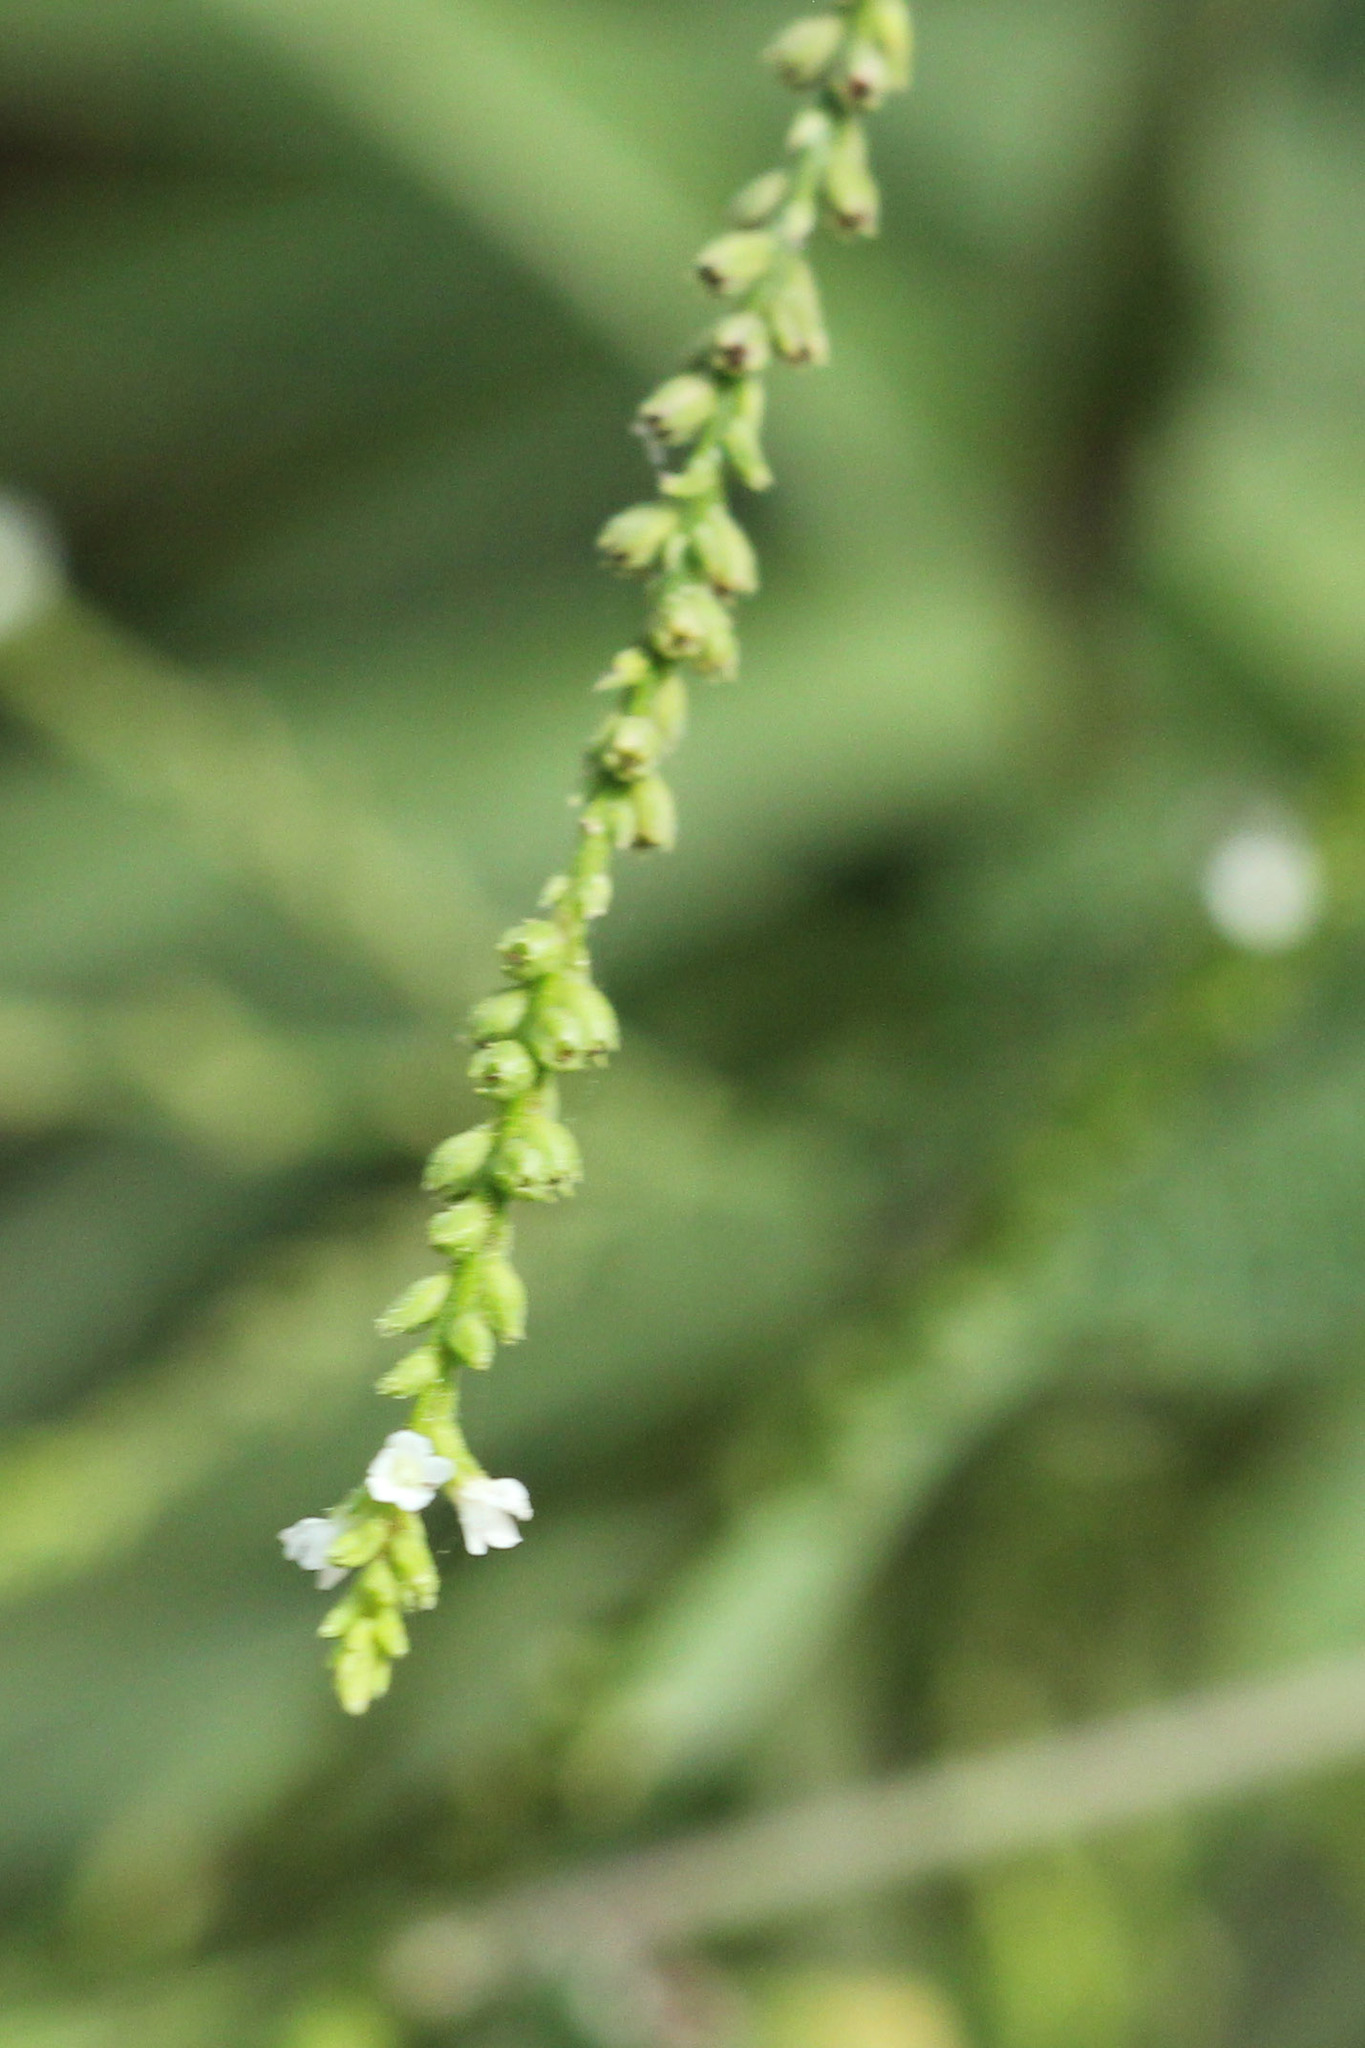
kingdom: Plantae
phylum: Tracheophyta
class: Magnoliopsida
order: Lamiales
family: Verbenaceae
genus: Verbena
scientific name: Verbena urticifolia
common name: Nettle-leaved vervain
